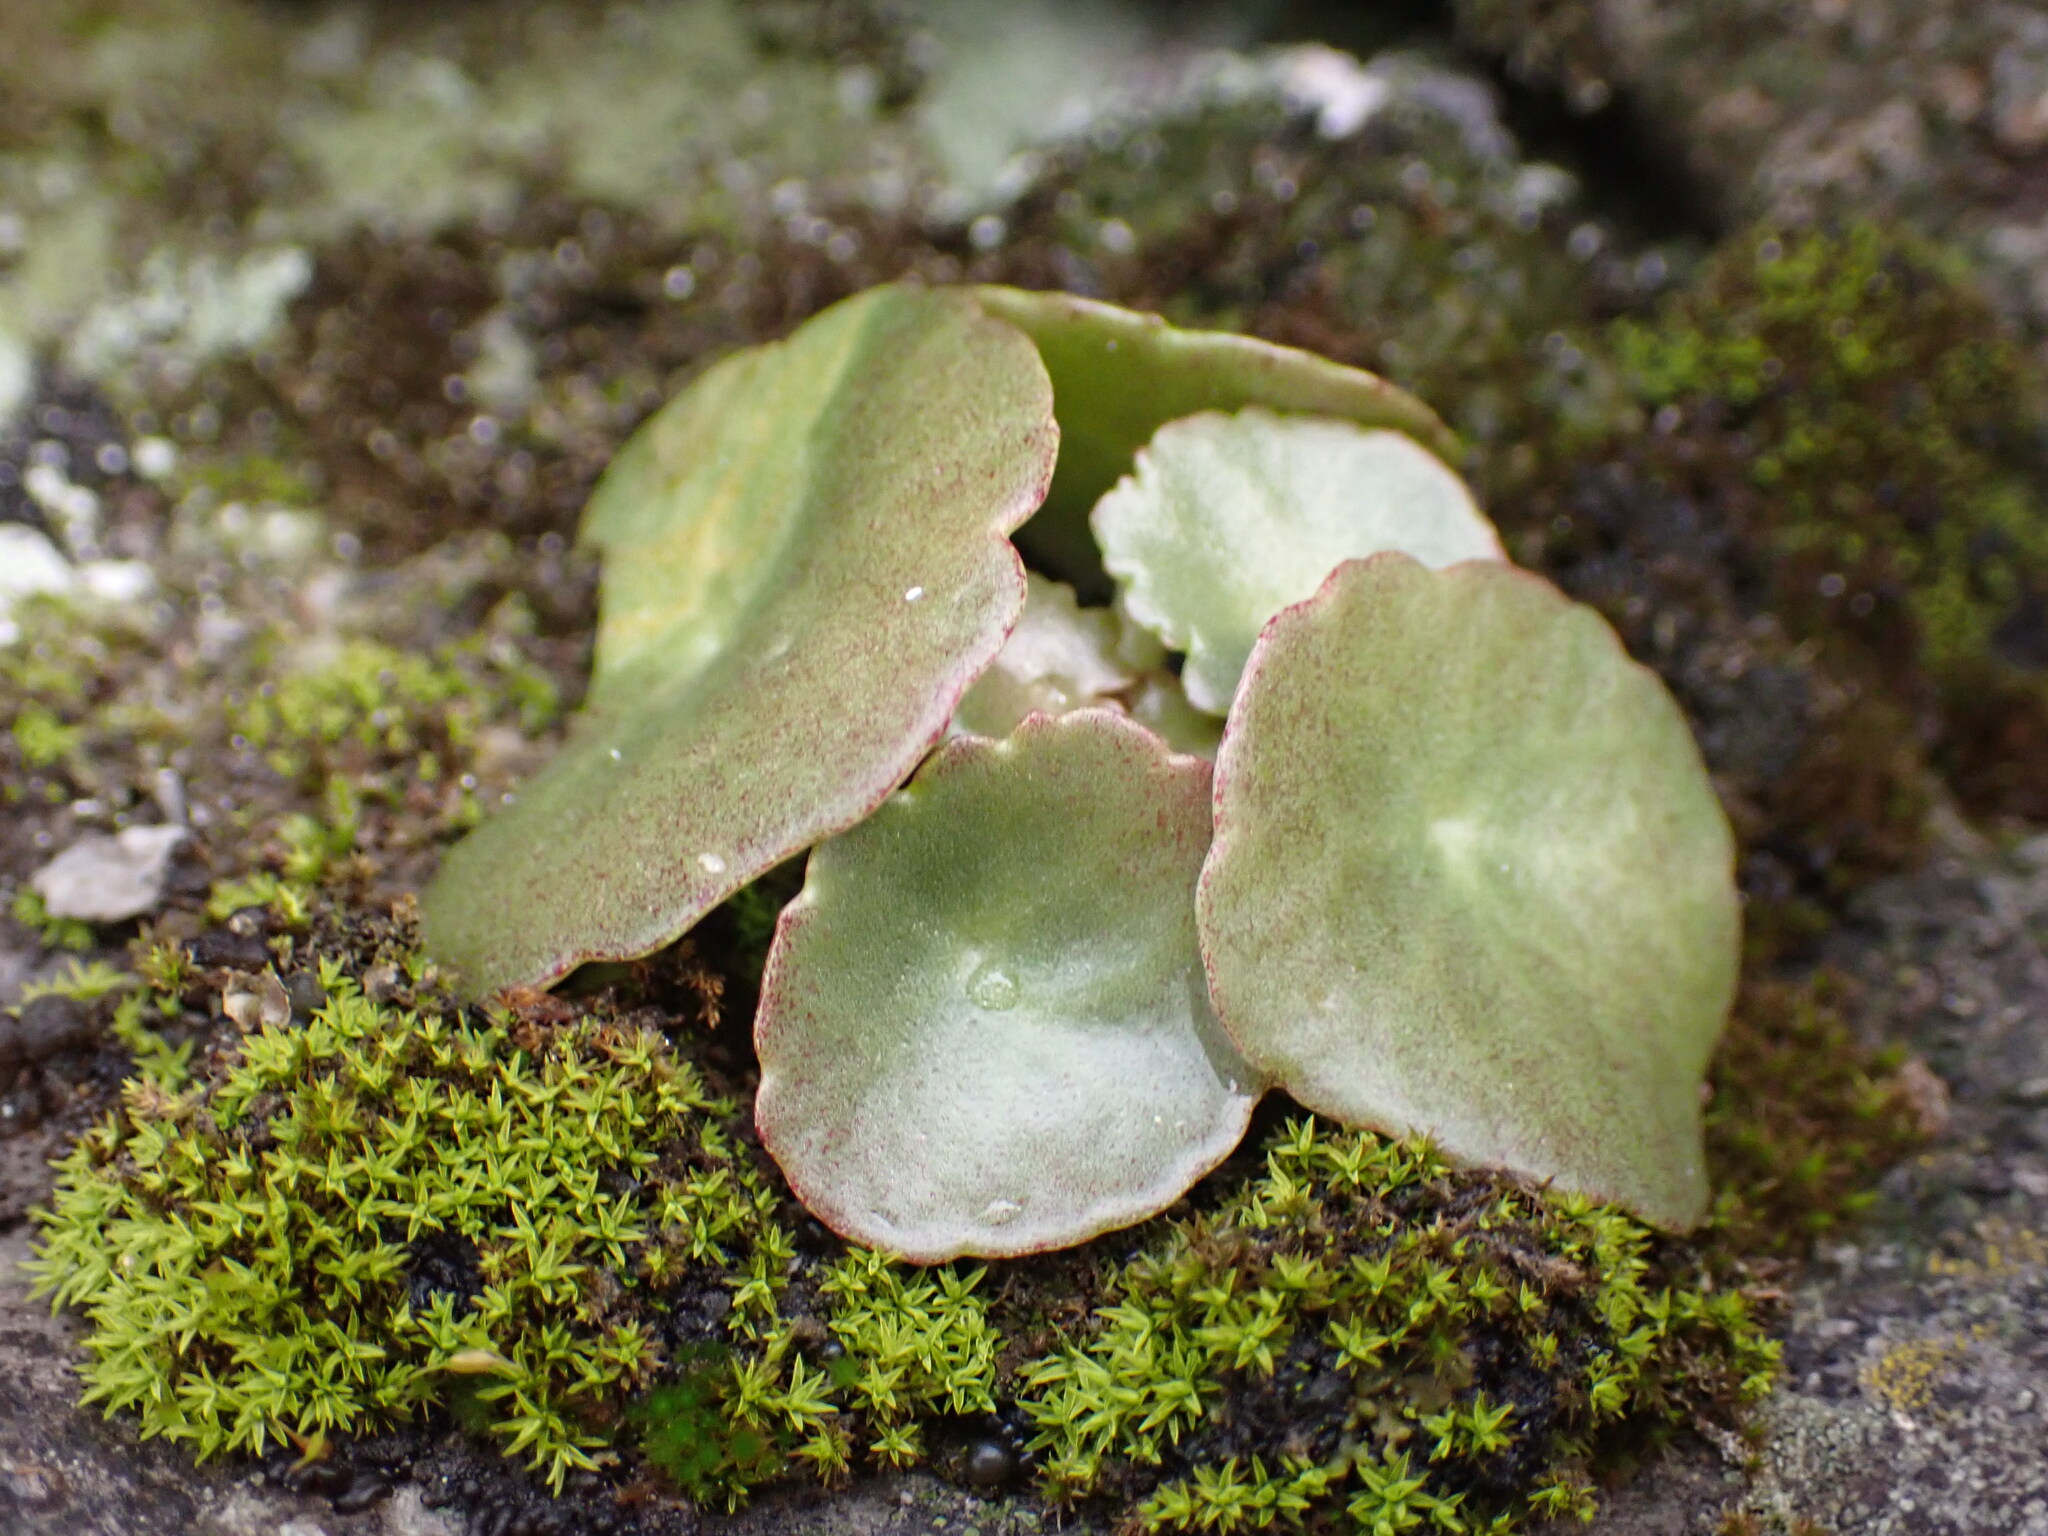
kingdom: Plantae
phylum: Tracheophyta
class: Magnoliopsida
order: Saxifragales
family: Crassulaceae
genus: Umbilicus
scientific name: Umbilicus rupestris
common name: Navelwort
